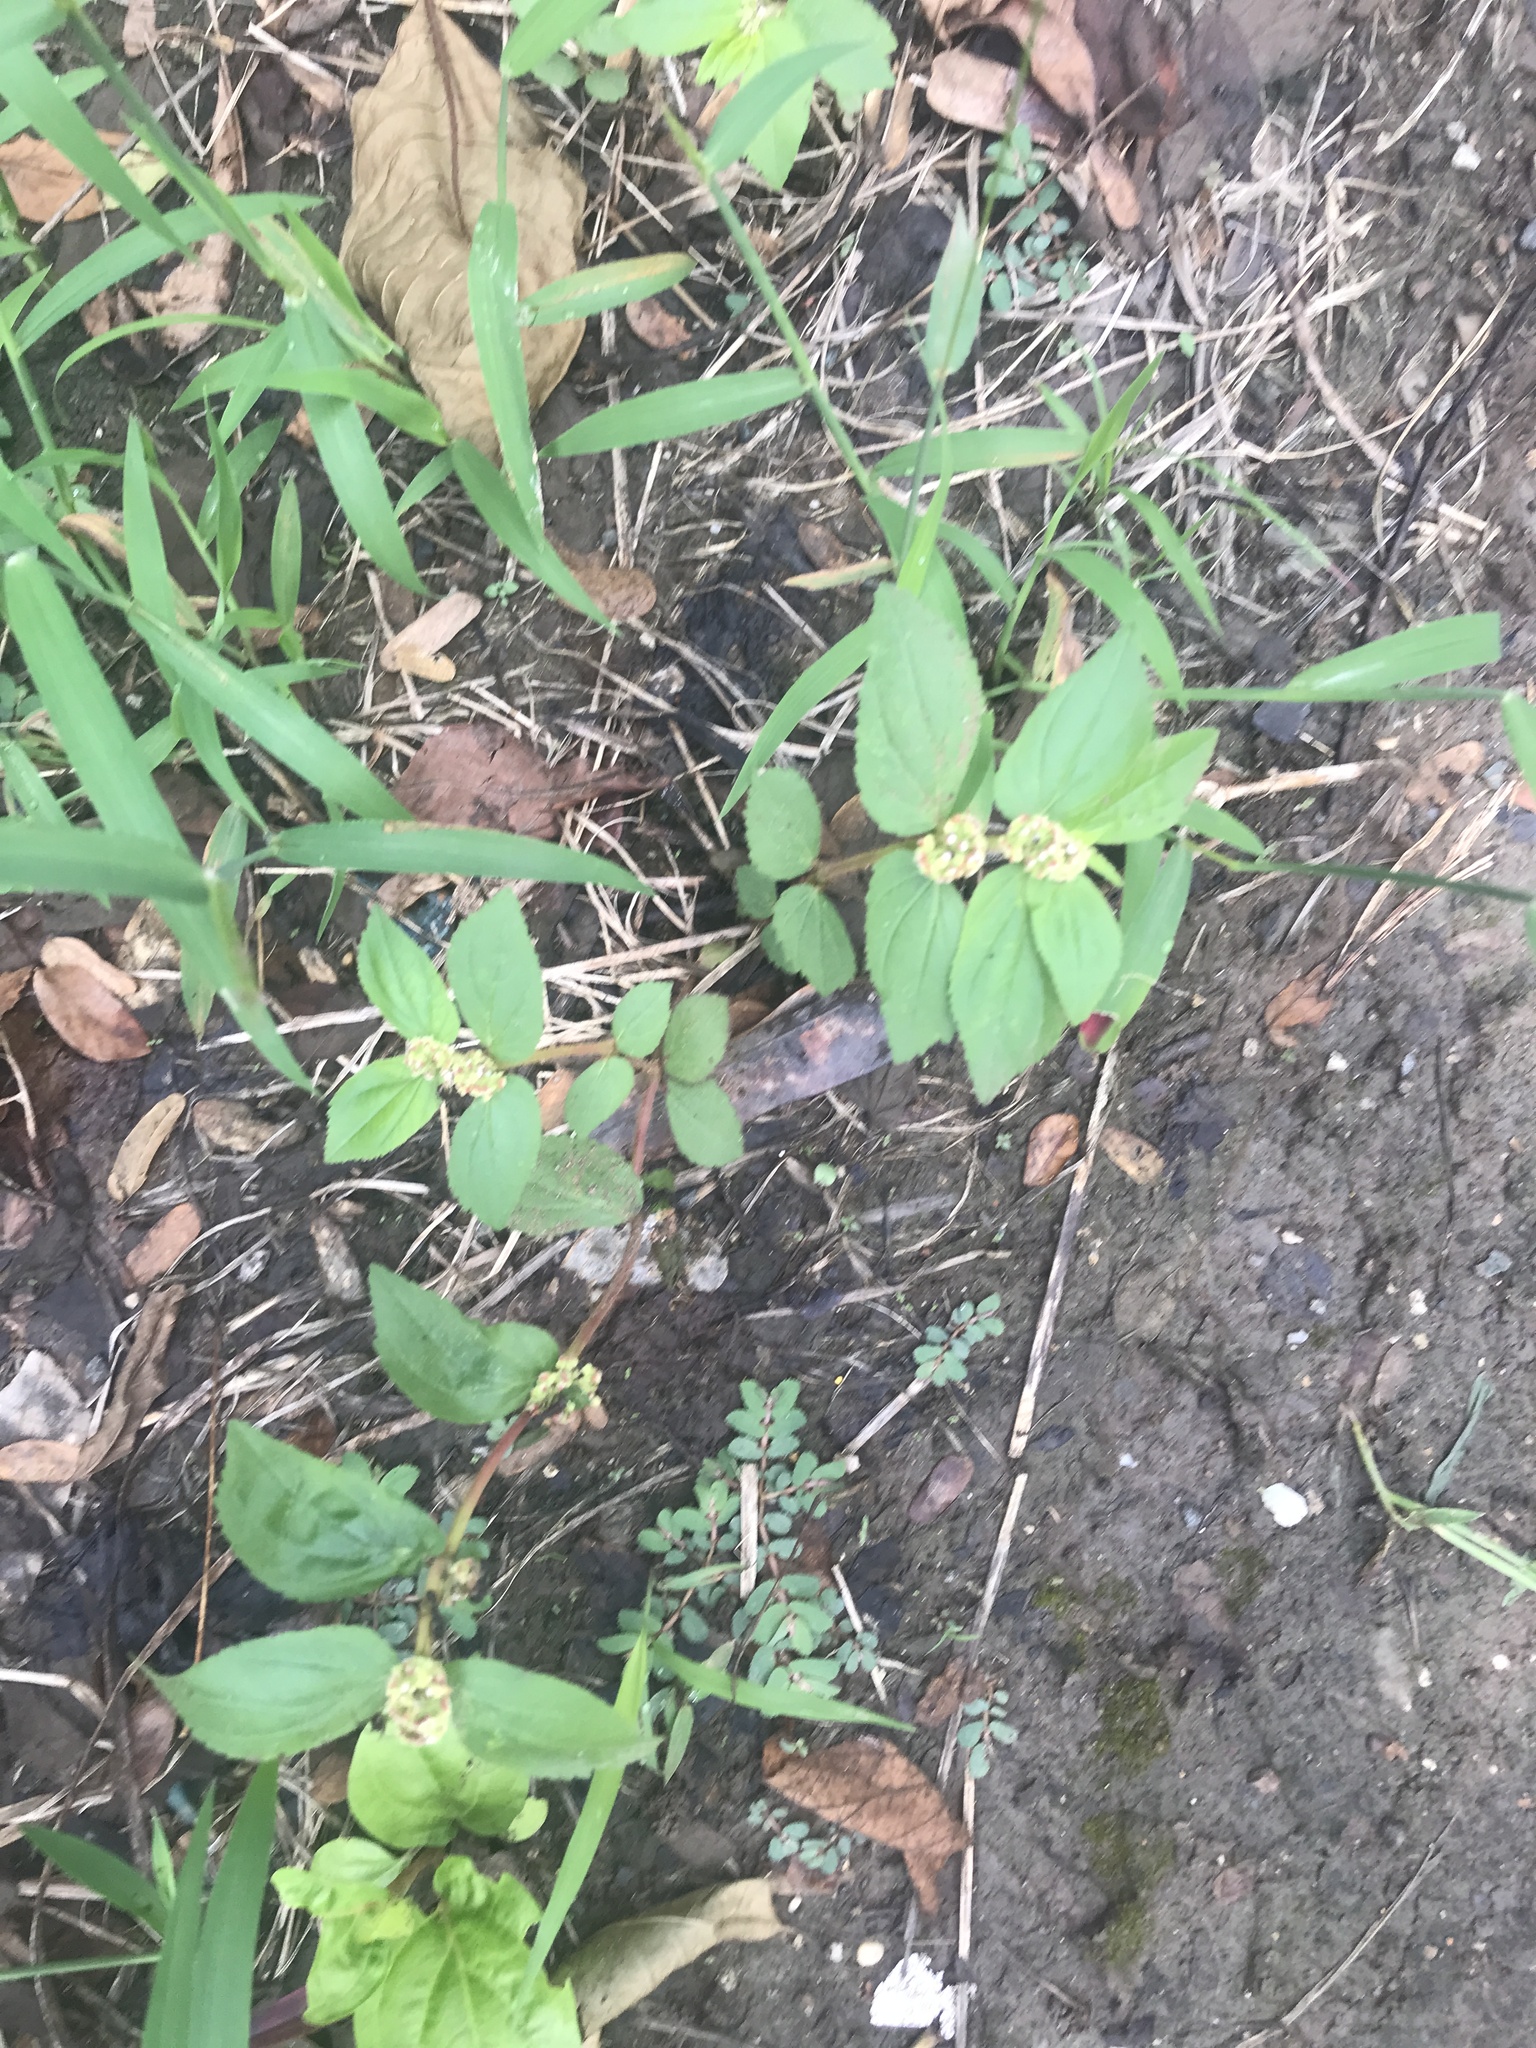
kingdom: Plantae
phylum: Tracheophyta
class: Magnoliopsida
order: Malpighiales
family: Euphorbiaceae
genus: Euphorbia
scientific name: Euphorbia hirta
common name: Pillpod sandmat
